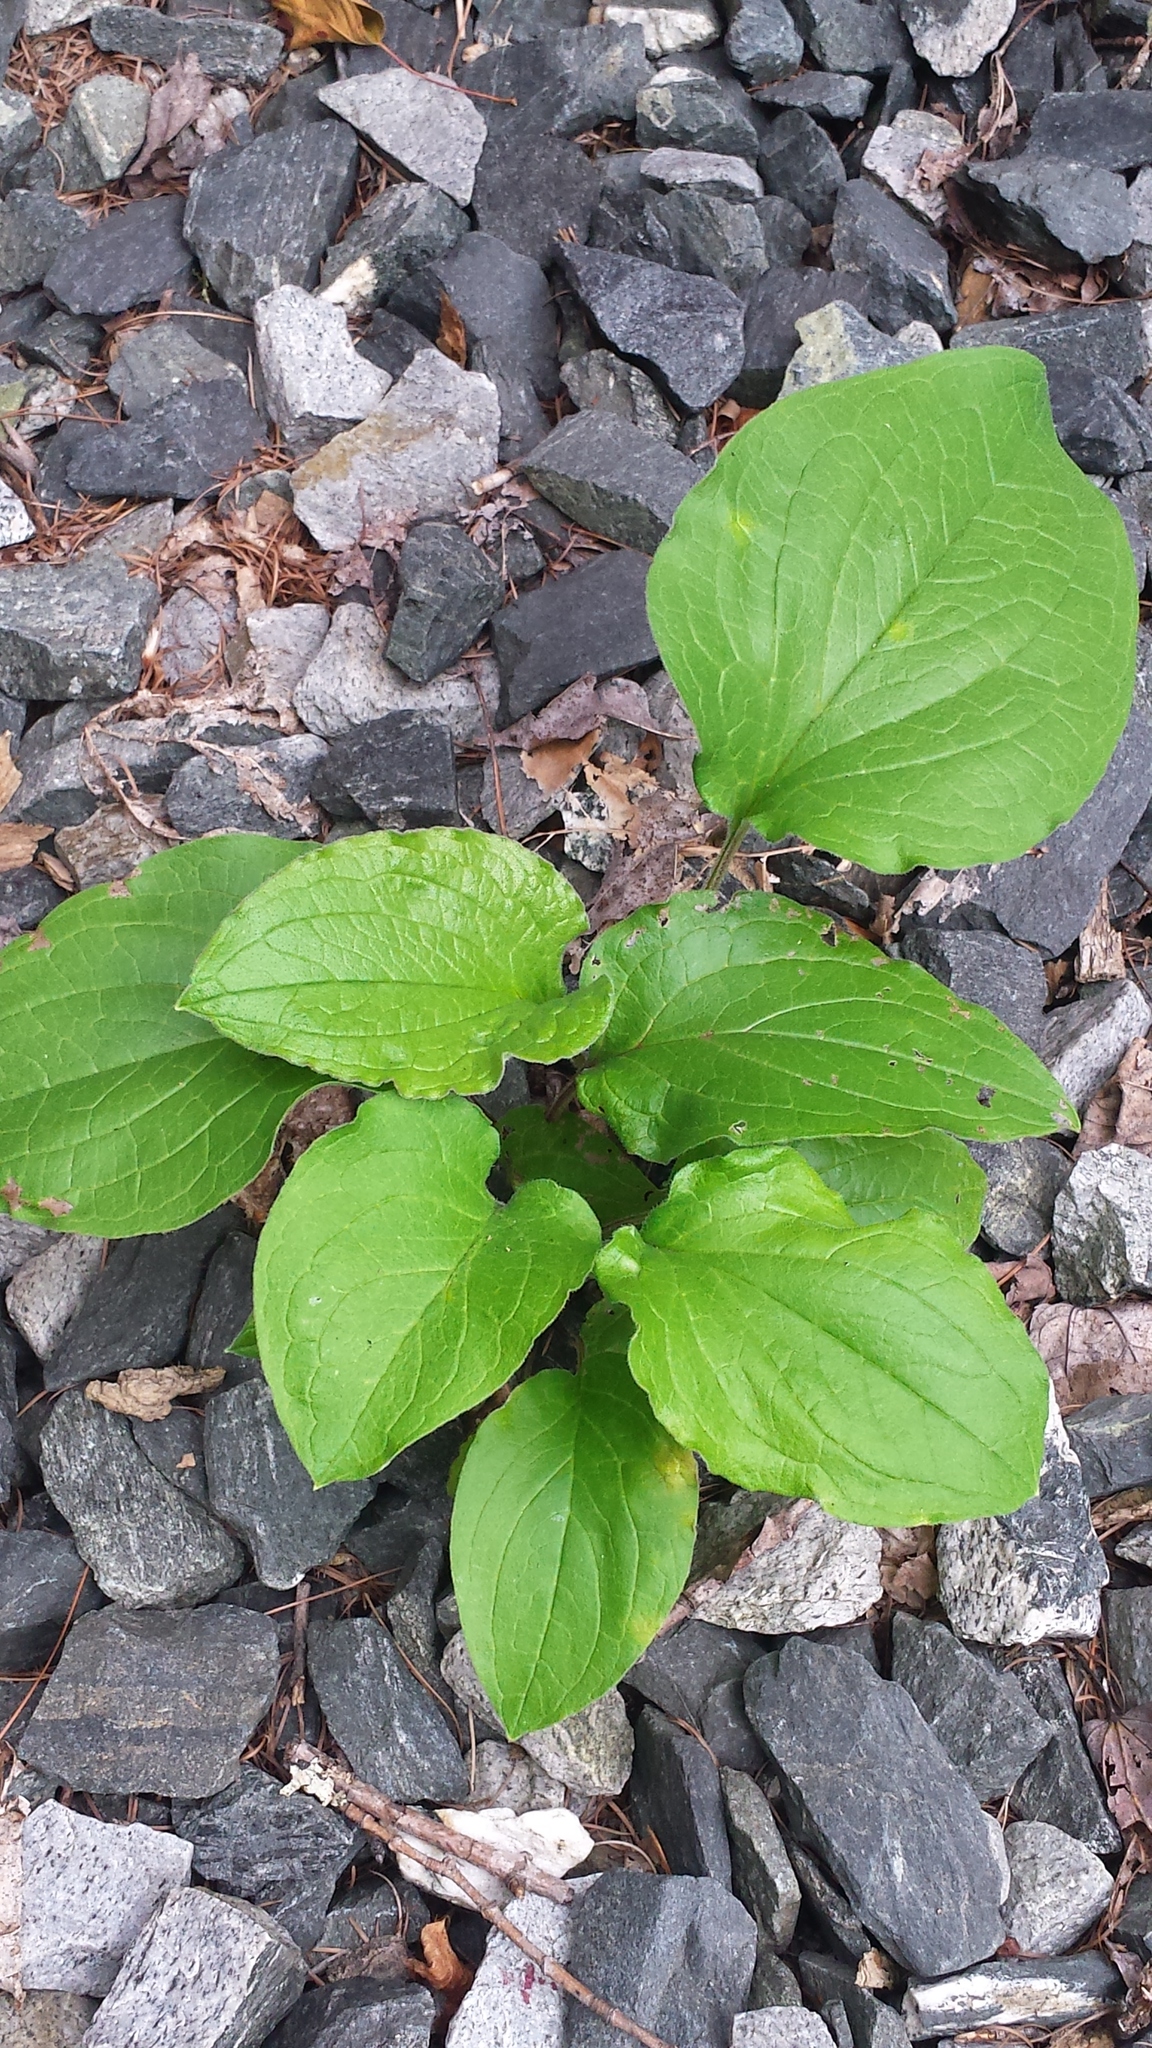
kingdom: Plantae
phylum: Tracheophyta
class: Magnoliopsida
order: Boraginales
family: Boraginaceae
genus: Hackelia
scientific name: Hackelia virginiana
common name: Beggar's-lice
